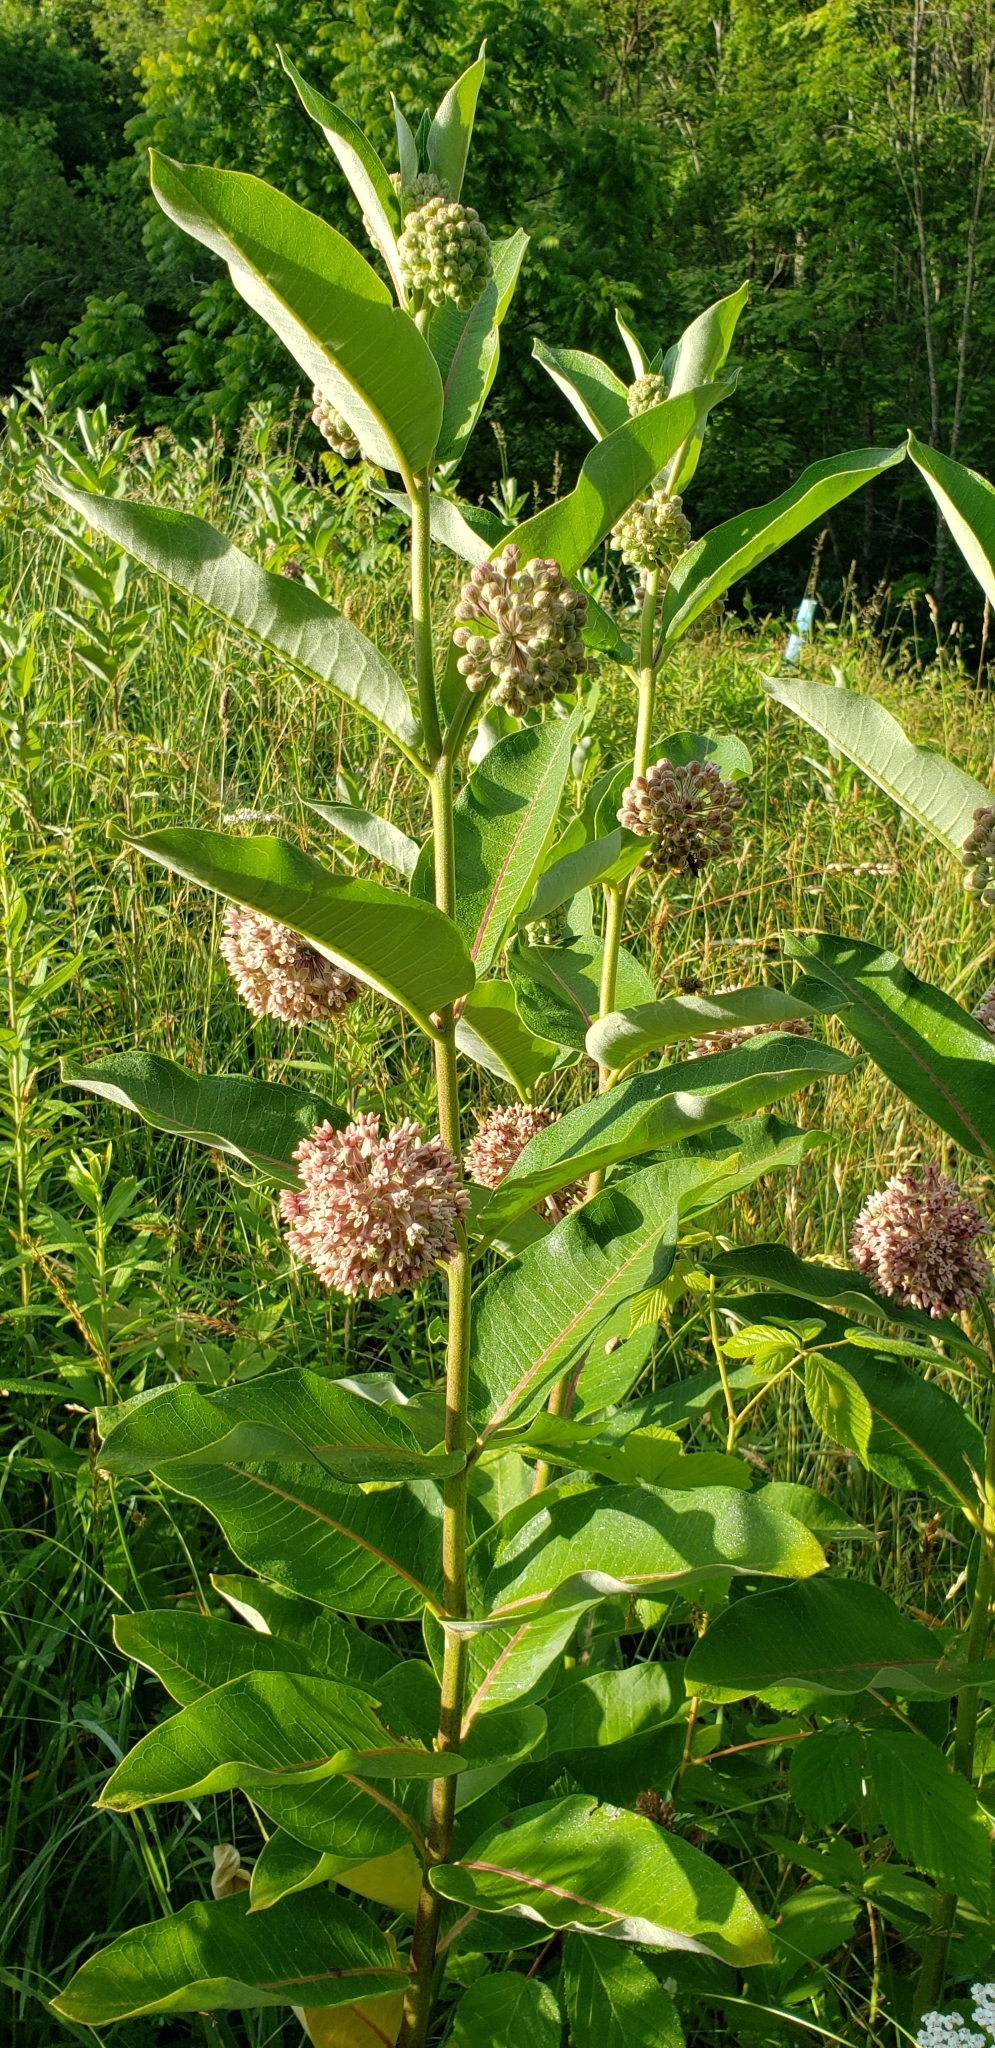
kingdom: Plantae
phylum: Tracheophyta
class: Magnoliopsida
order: Gentianales
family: Apocynaceae
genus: Asclepias
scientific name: Asclepias syriaca
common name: Common milkweed
